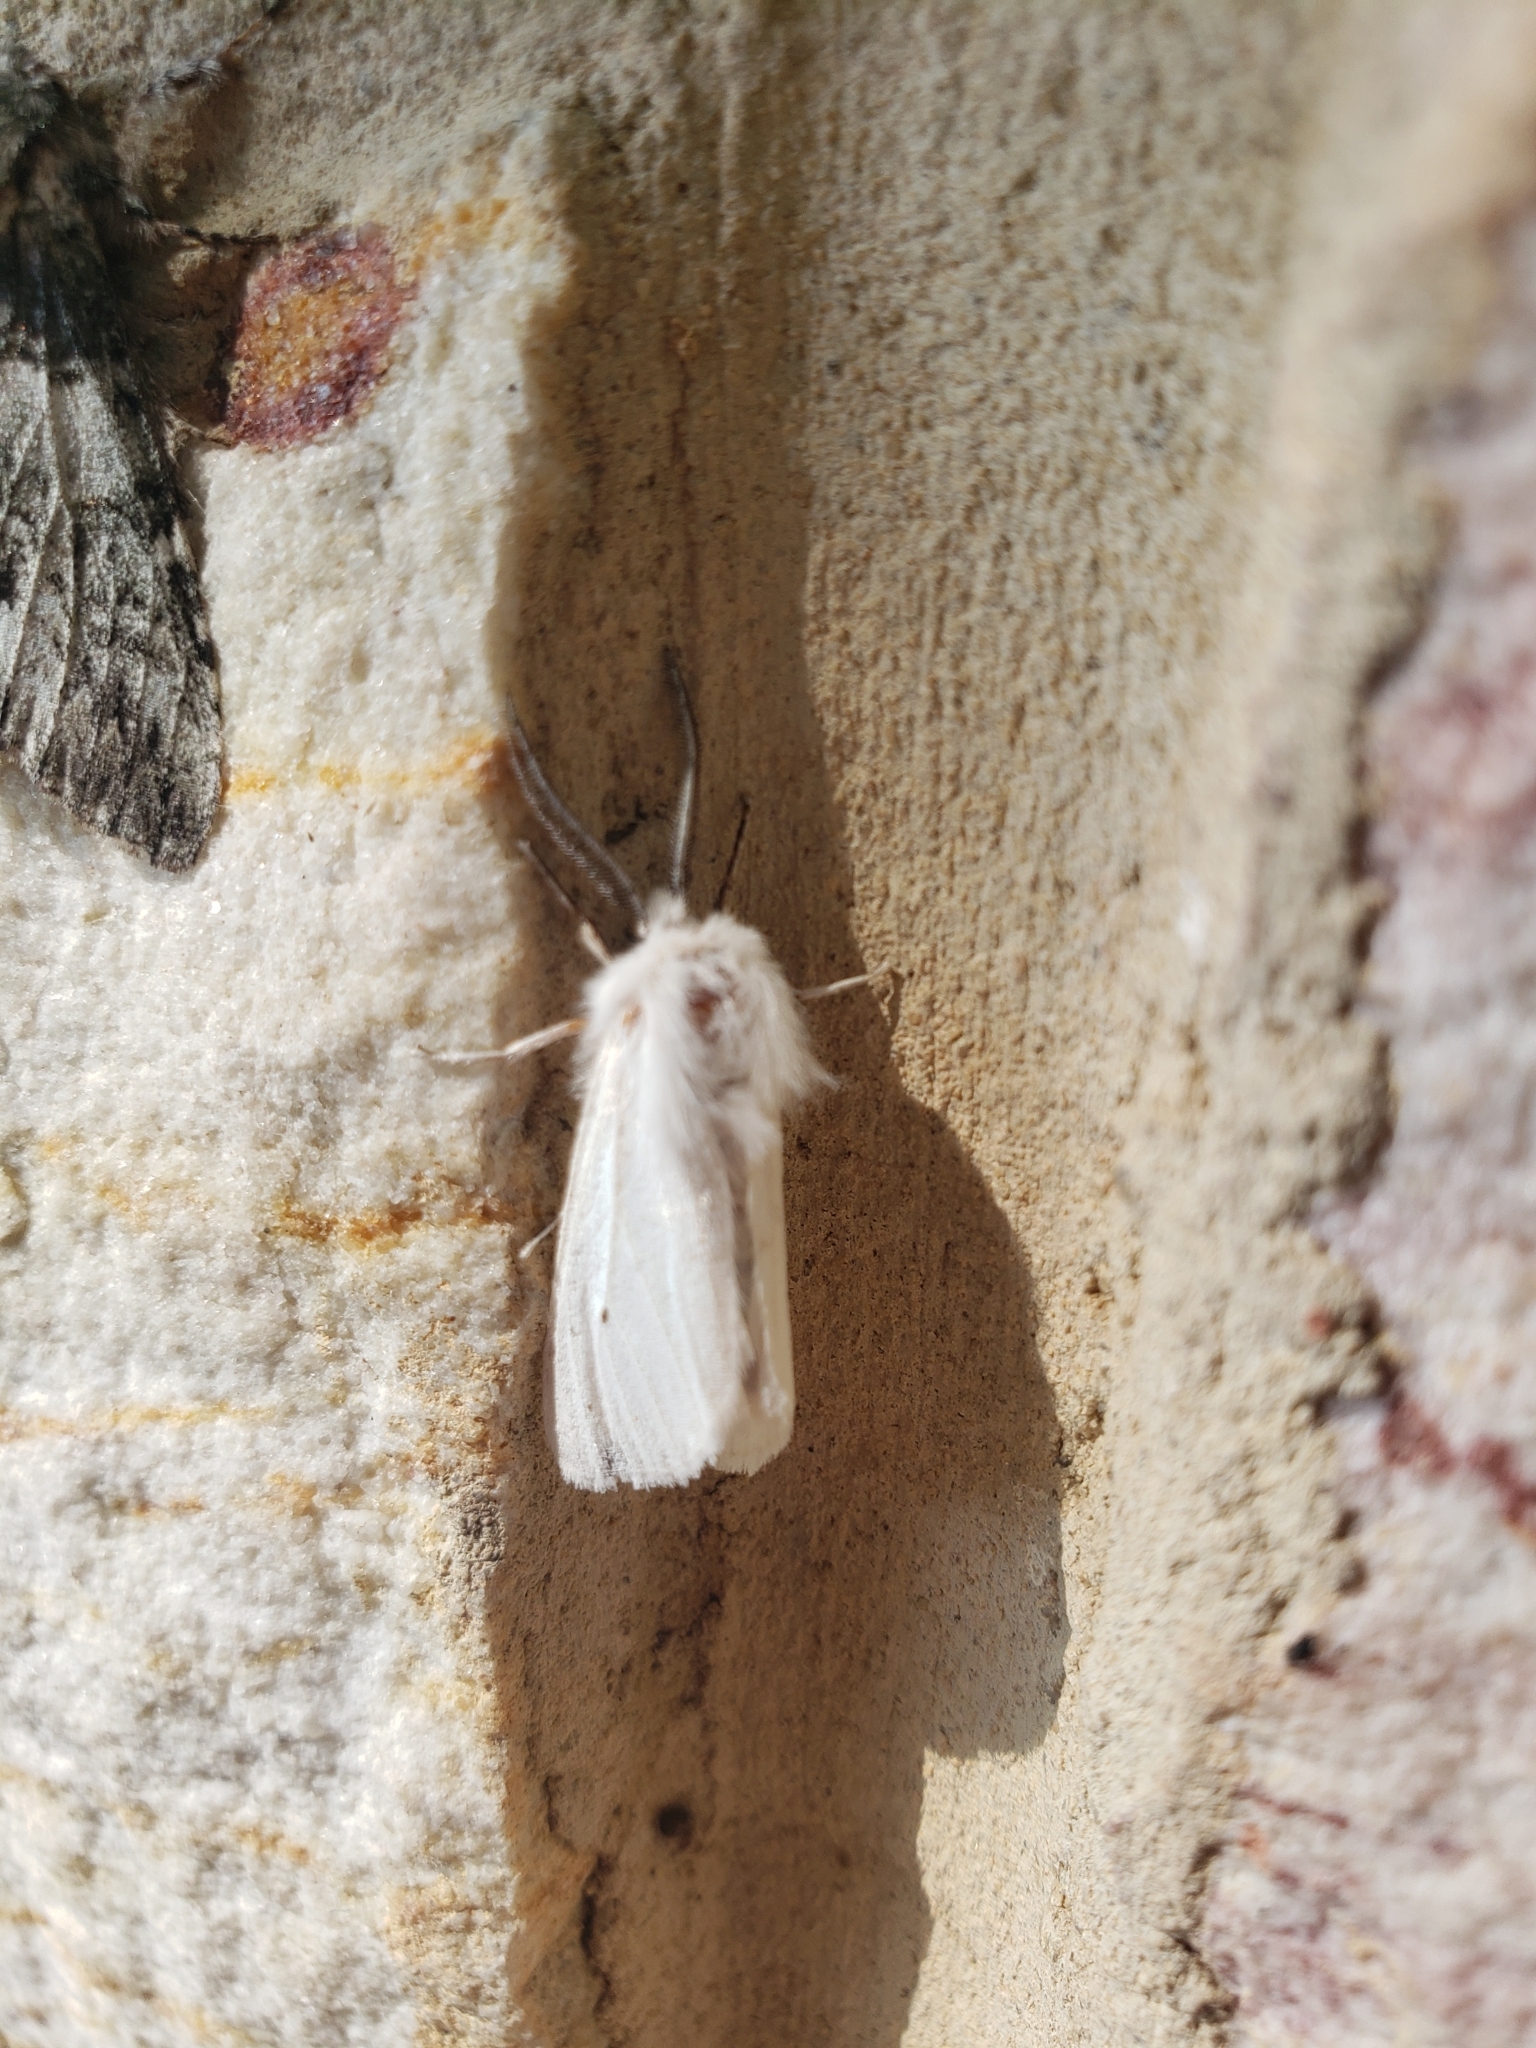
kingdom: Animalia
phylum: Arthropoda
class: Insecta
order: Lepidoptera
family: Erebidae
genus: Spilosoma
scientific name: Spilosoma congrua
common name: Agreeable tiger moth
